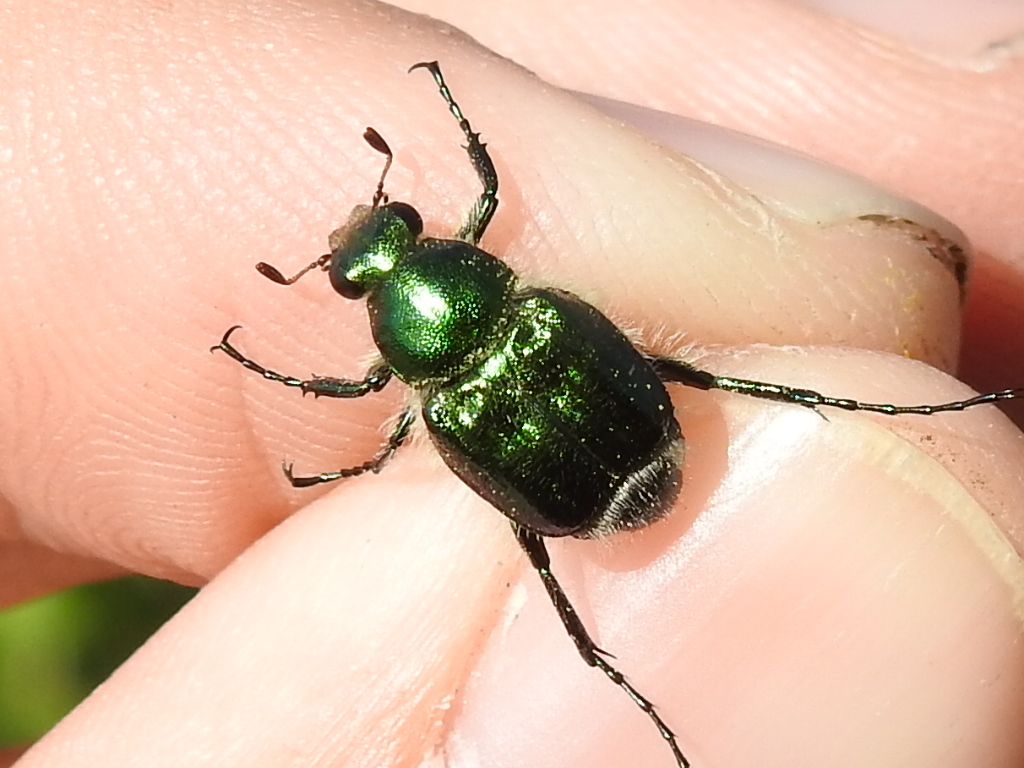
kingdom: Animalia
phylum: Arthropoda
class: Insecta
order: Coleoptera
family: Scarabaeidae
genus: Trichiotinus
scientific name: Trichiotinus lunulatus
